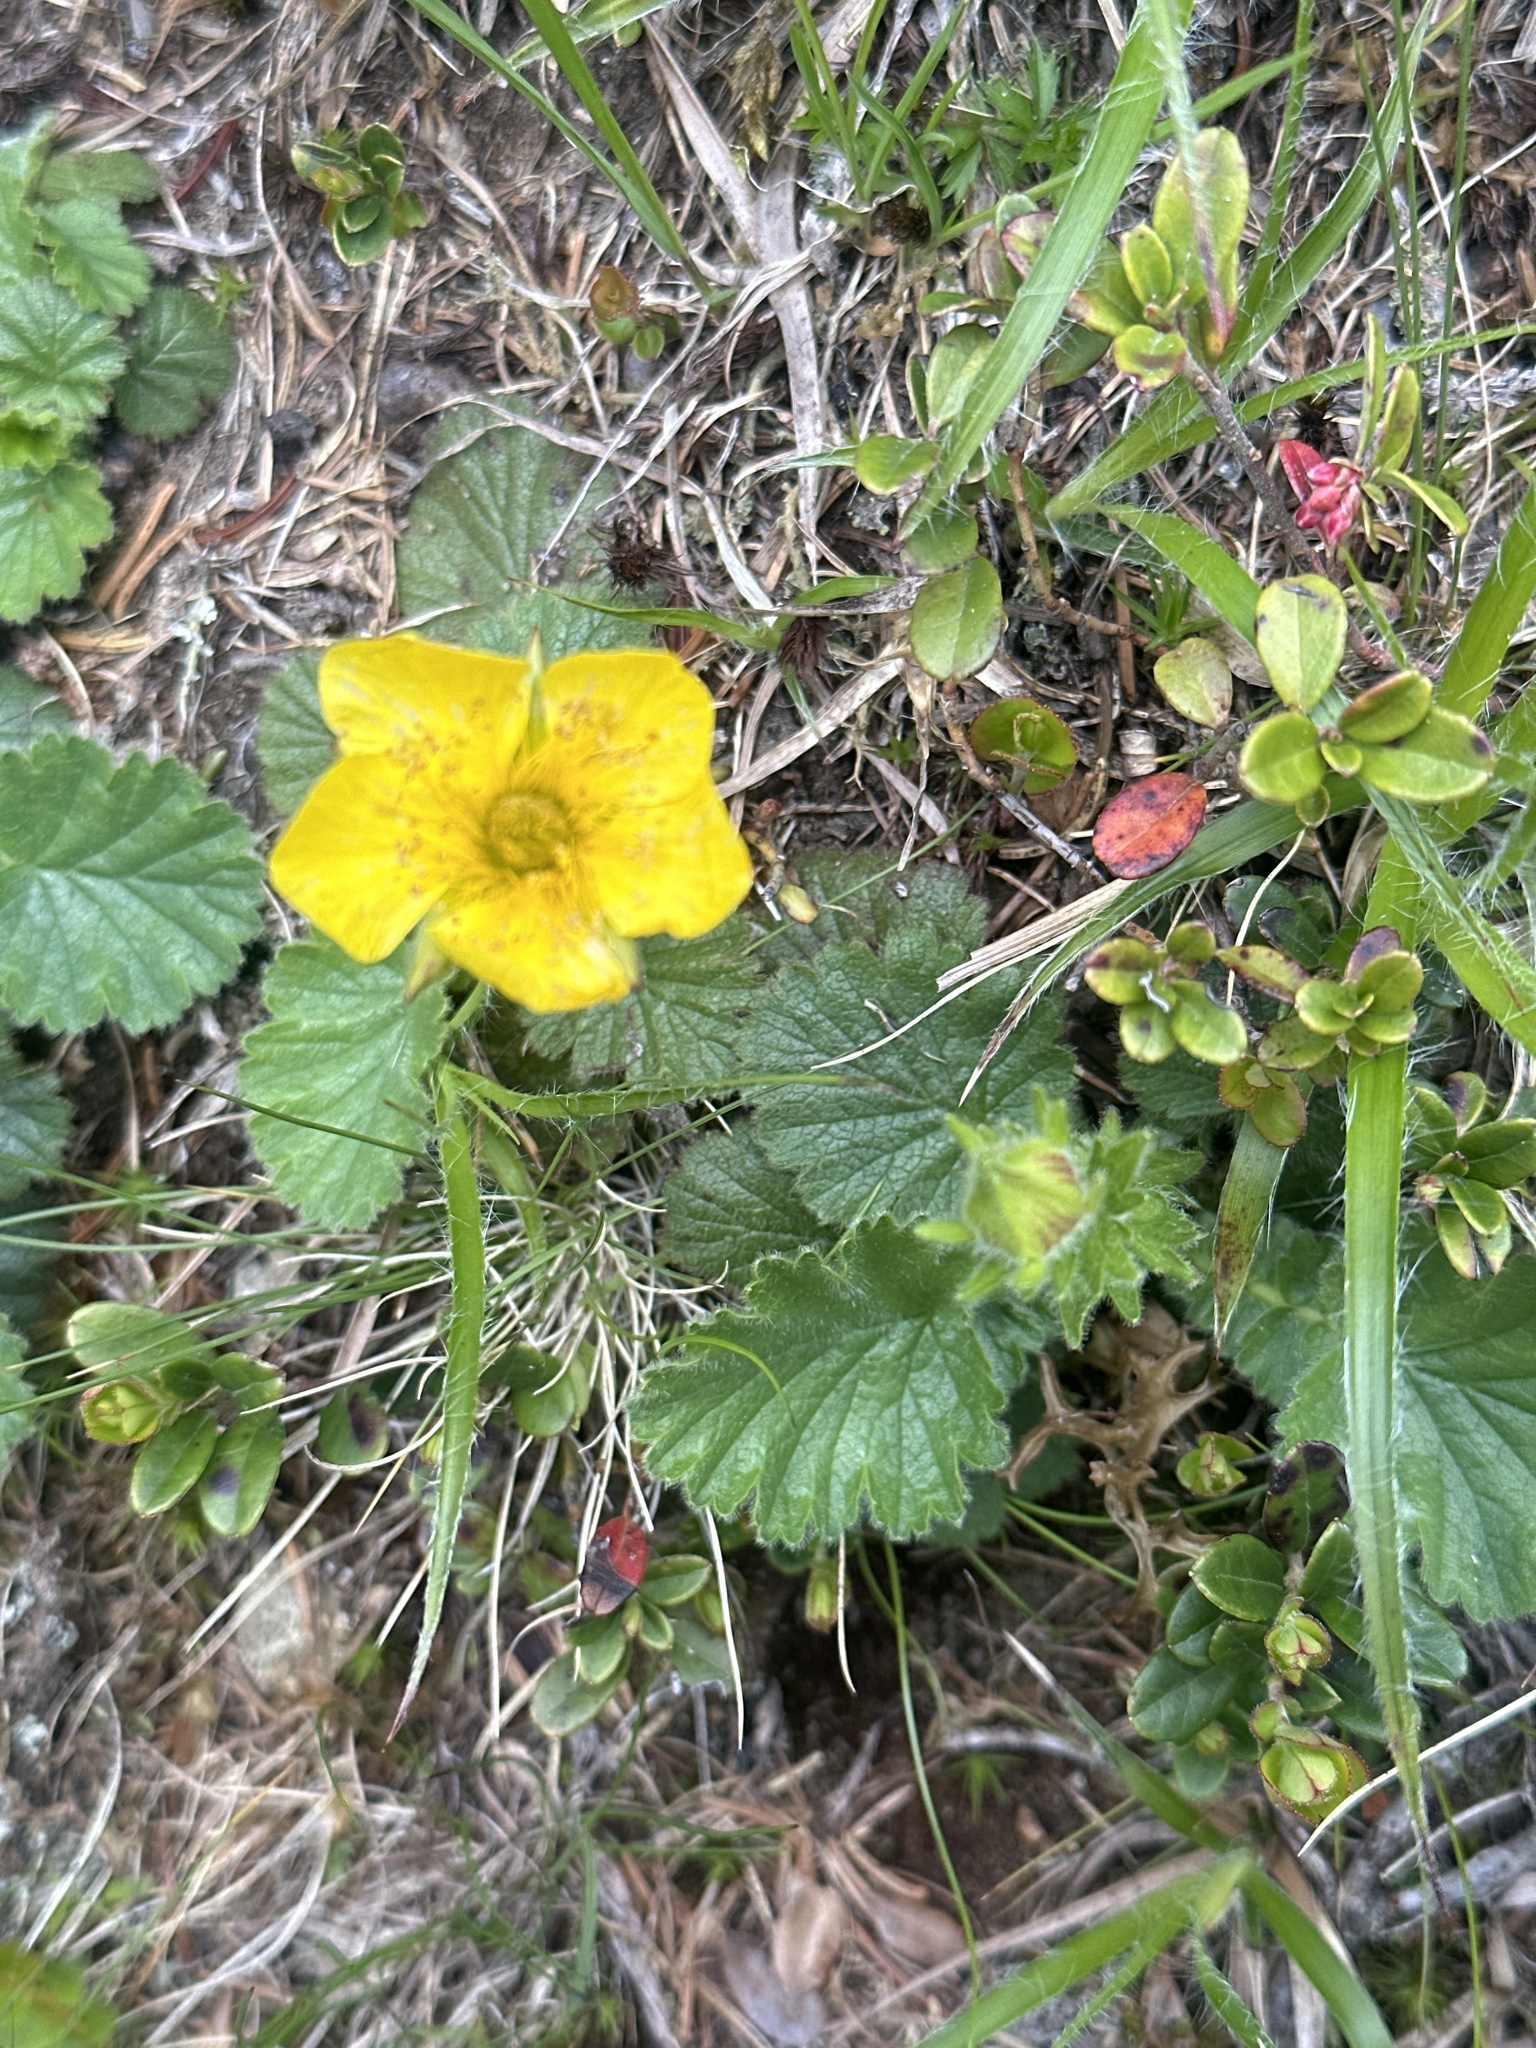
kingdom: Plantae
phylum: Tracheophyta
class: Magnoliopsida
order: Rosales
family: Rosaceae
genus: Geum
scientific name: Geum montanum
